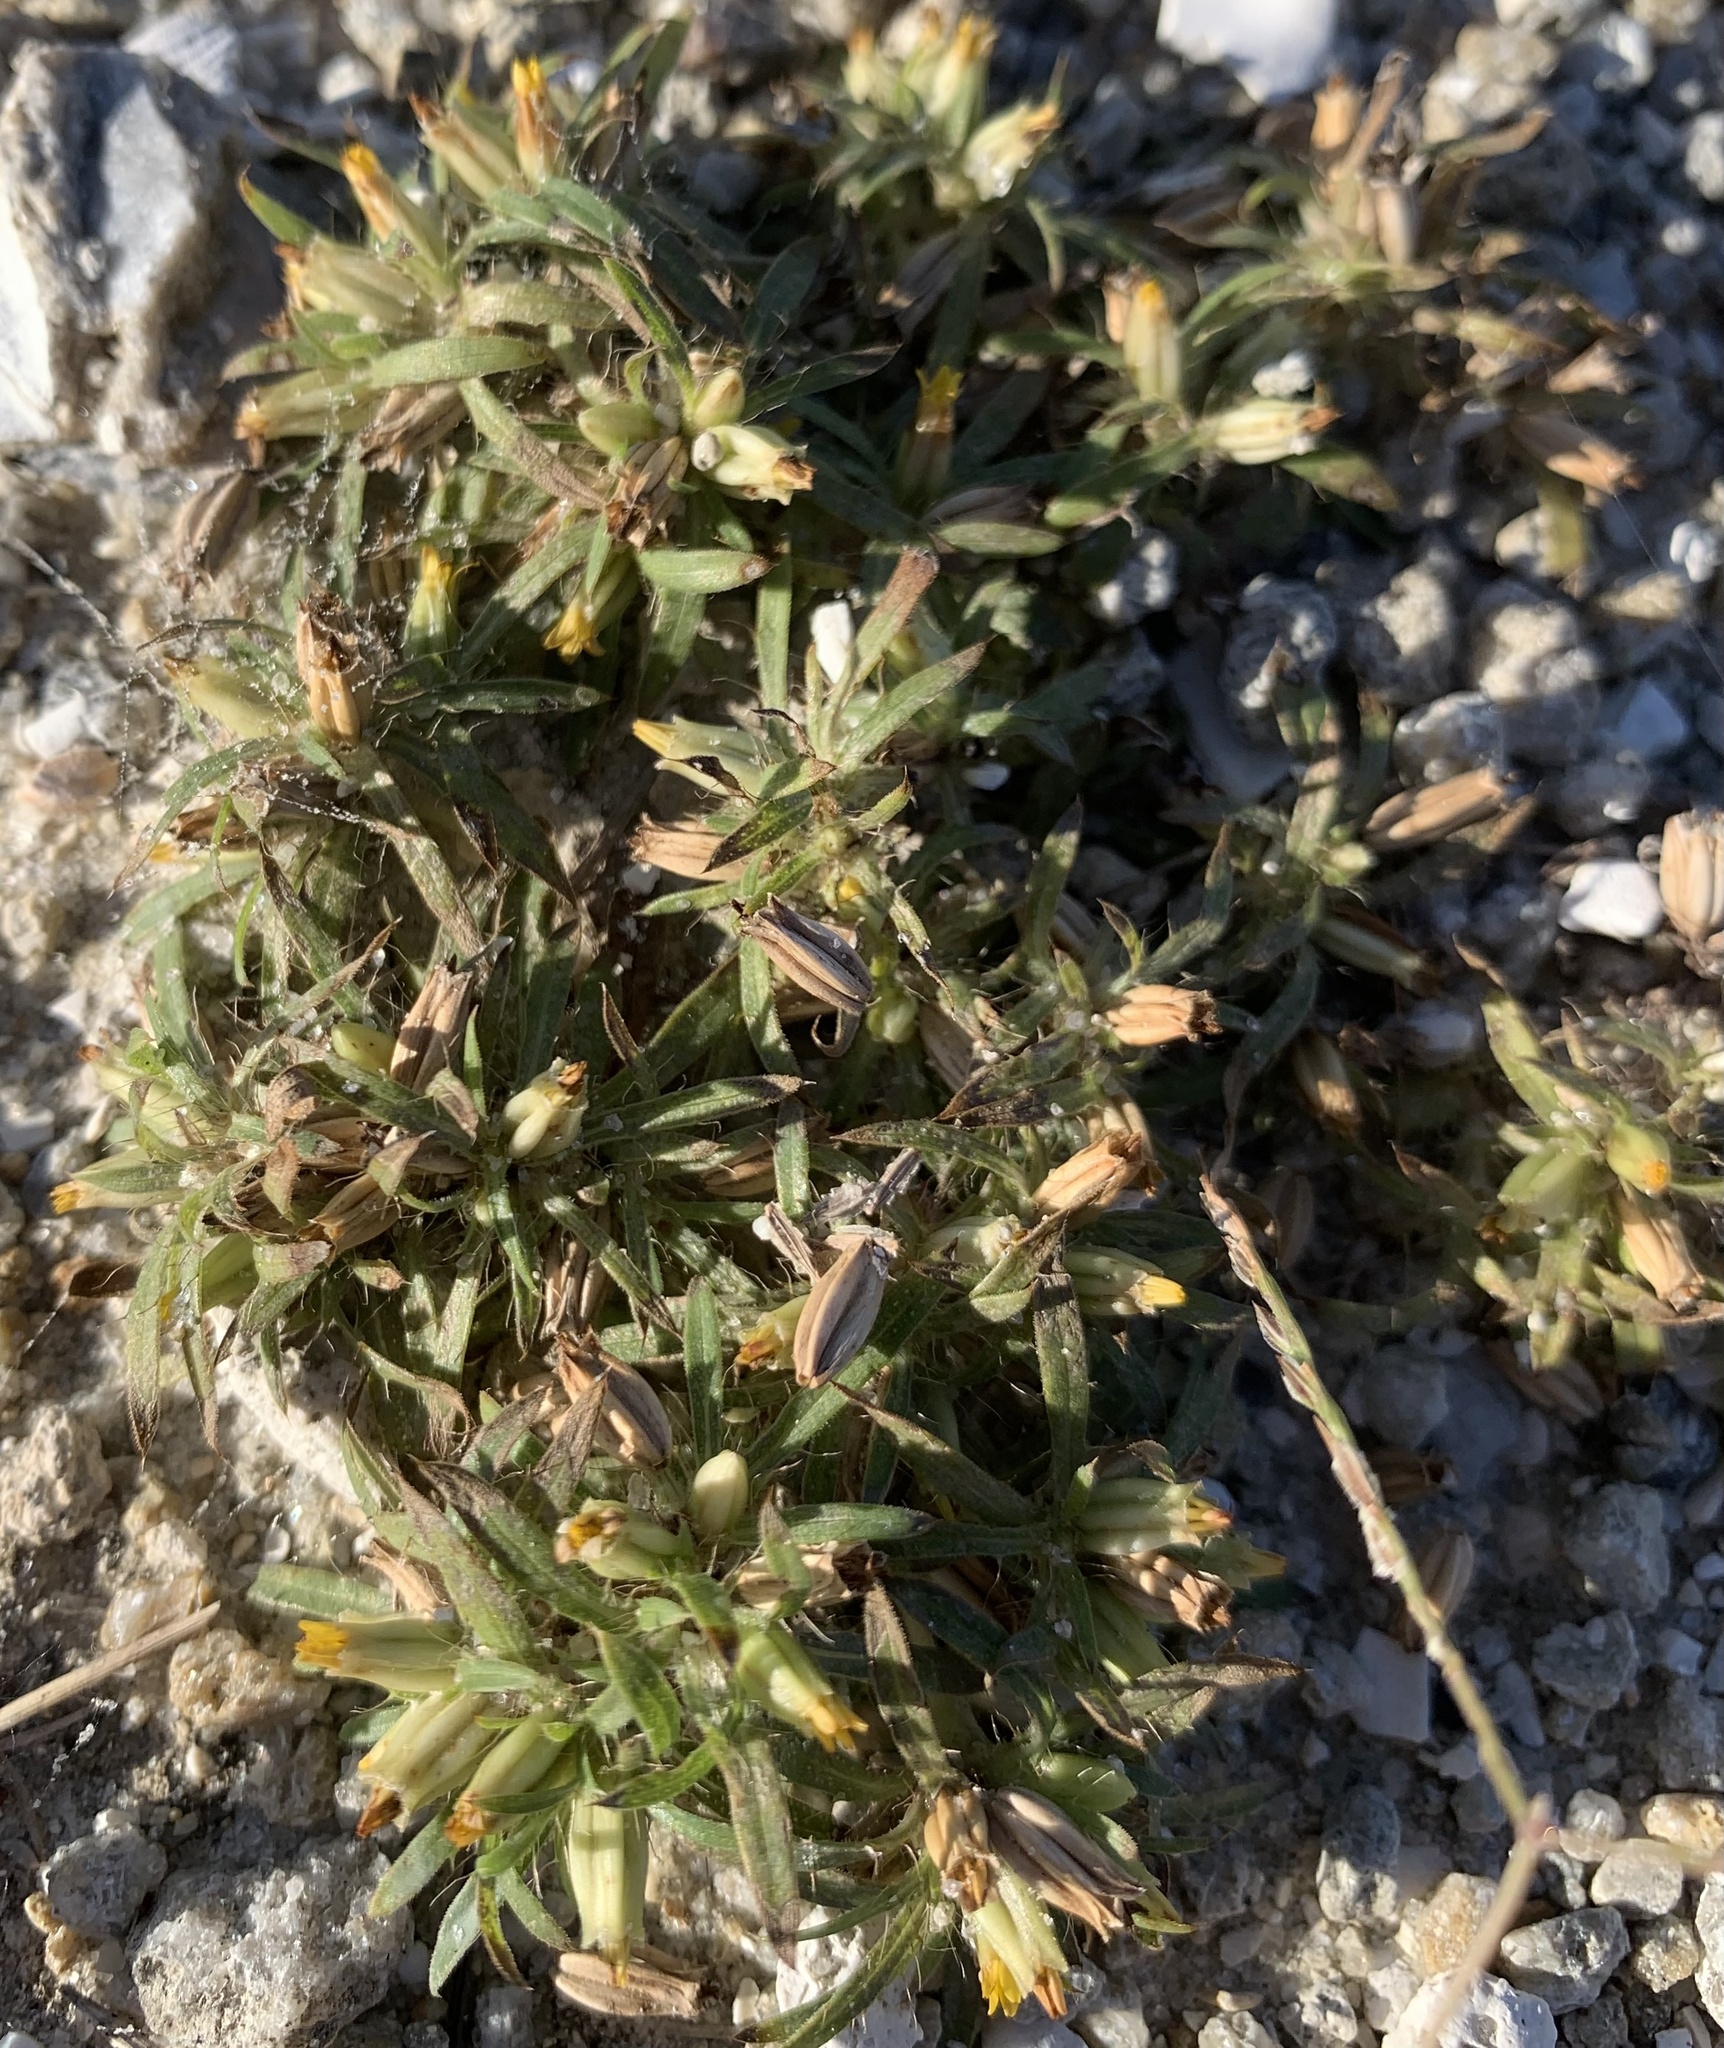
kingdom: Plantae
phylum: Tracheophyta
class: Magnoliopsida
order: Asterales
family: Asteraceae
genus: Pectis
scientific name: Pectis prostrata
